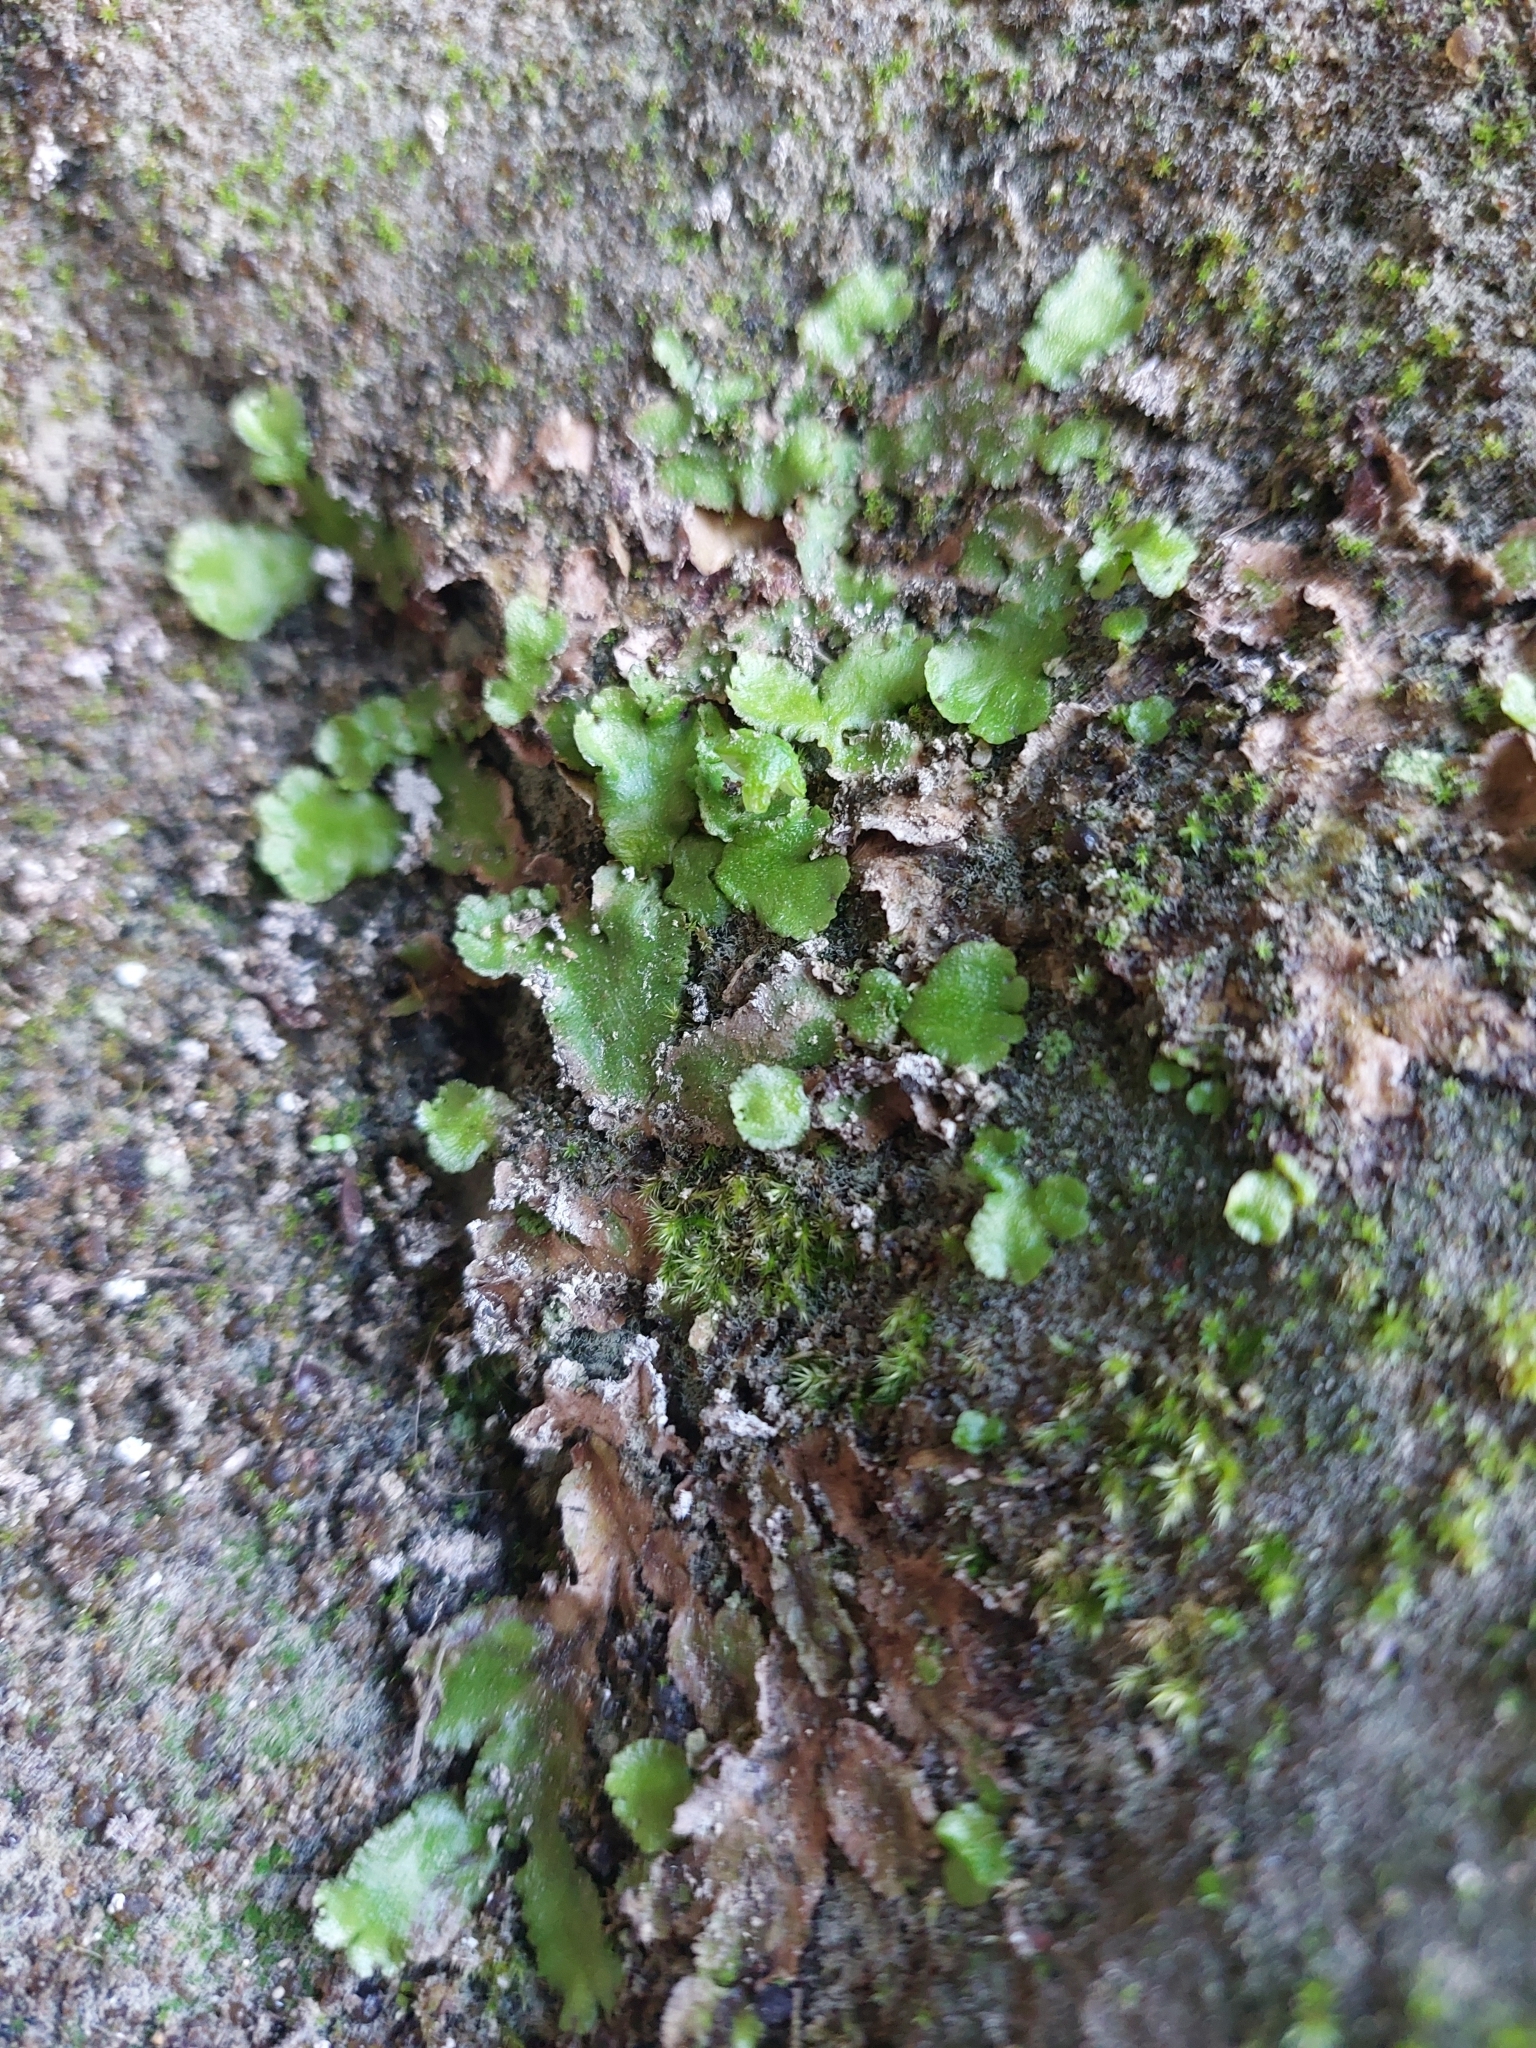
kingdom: Plantae
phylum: Marchantiophyta
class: Marchantiopsida
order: Marchantiales
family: Aytoniaceae
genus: Reboulia
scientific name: Reboulia hemisphaerica
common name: Purple-margined liverwort
